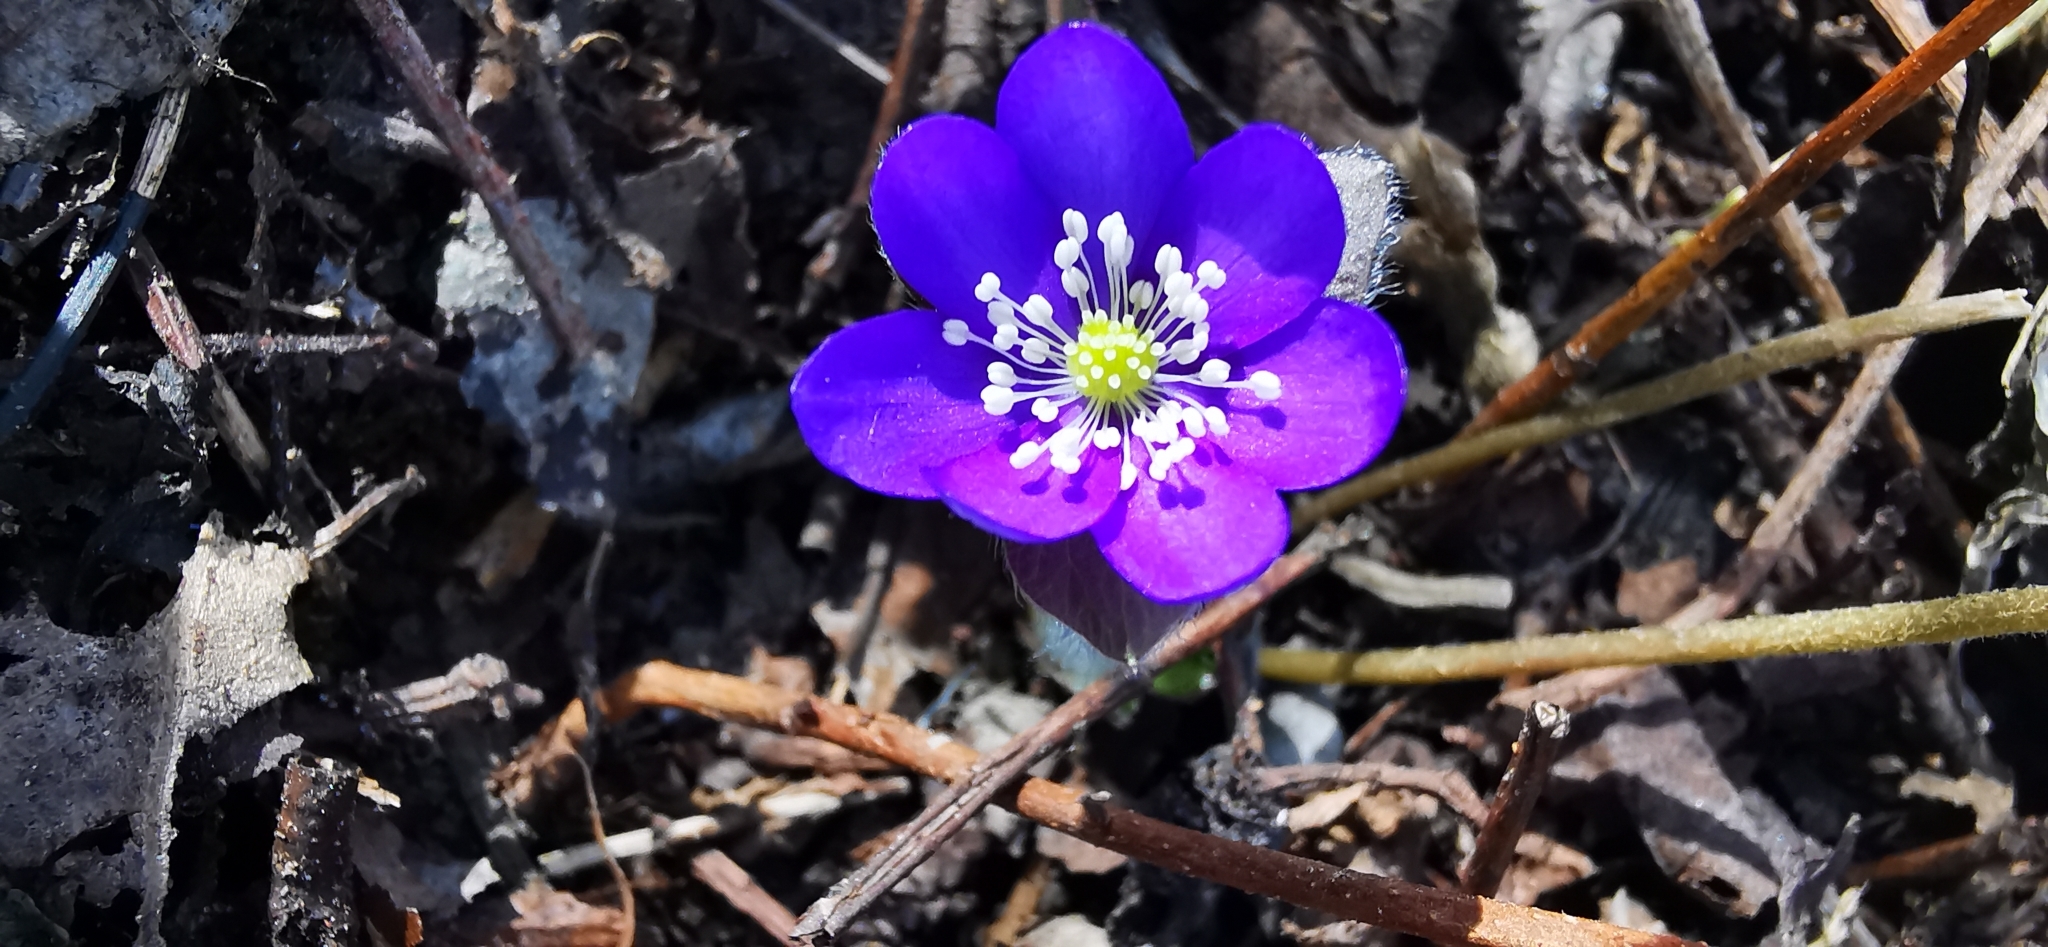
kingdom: Plantae
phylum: Tracheophyta
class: Magnoliopsida
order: Ranunculales
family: Ranunculaceae
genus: Hepatica
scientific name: Hepatica nobilis
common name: Liverleaf
